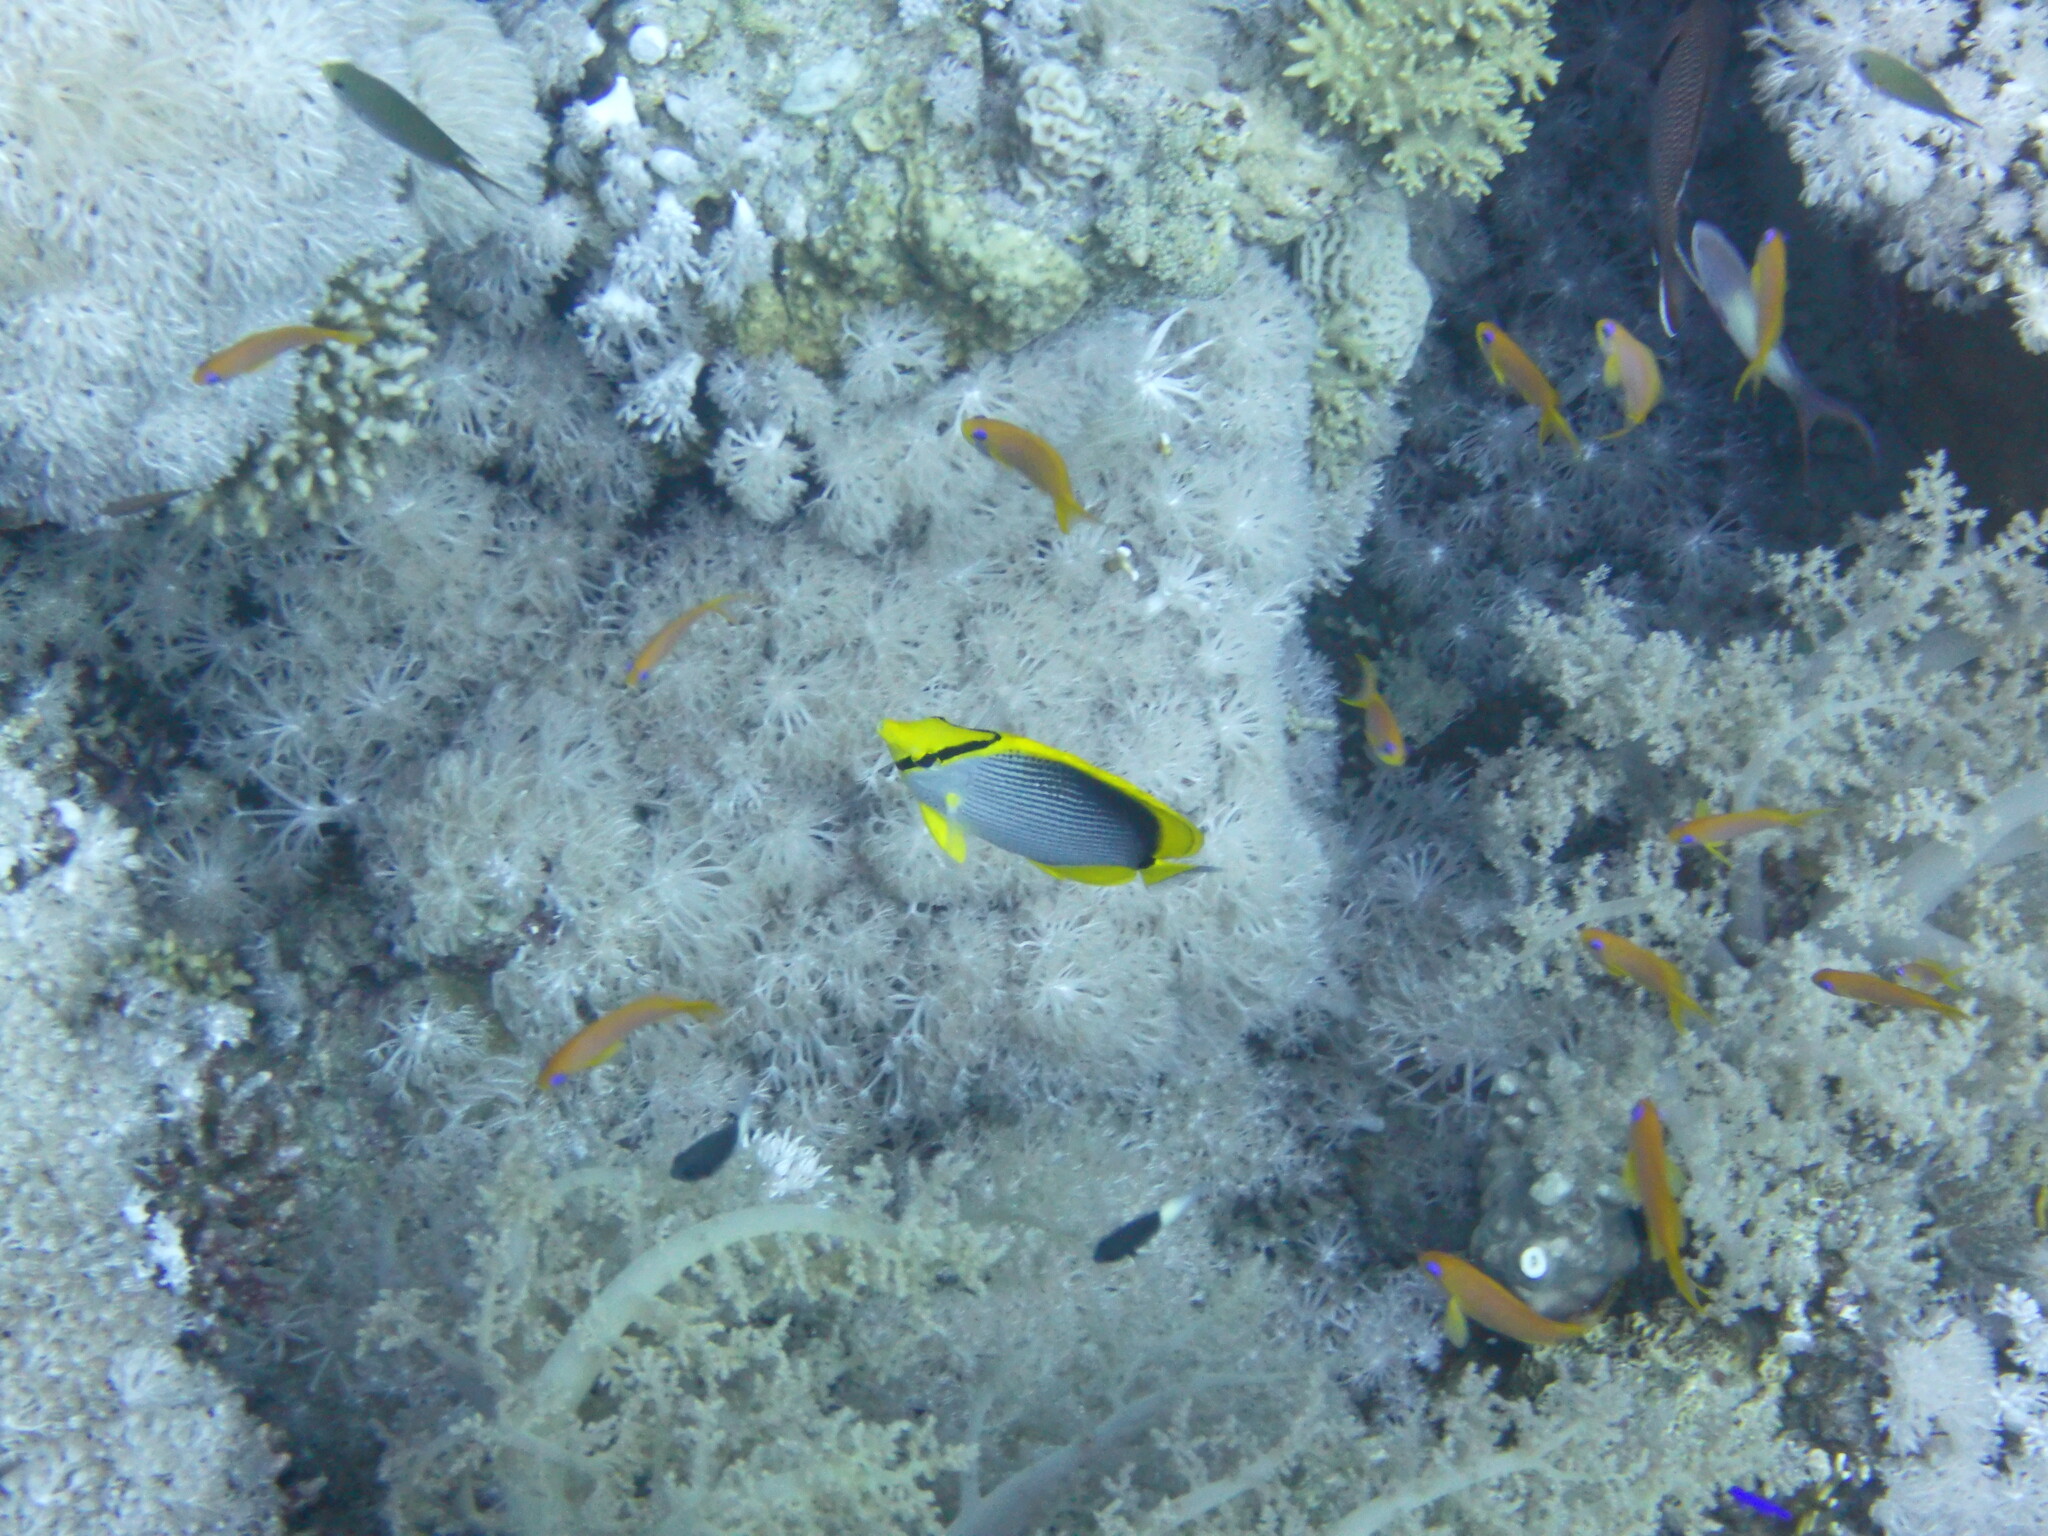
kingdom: Animalia
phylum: Chordata
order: Perciformes
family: Chaetodontidae
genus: Chaetodon
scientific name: Chaetodon melannotus
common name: Blackback butterflyfish
